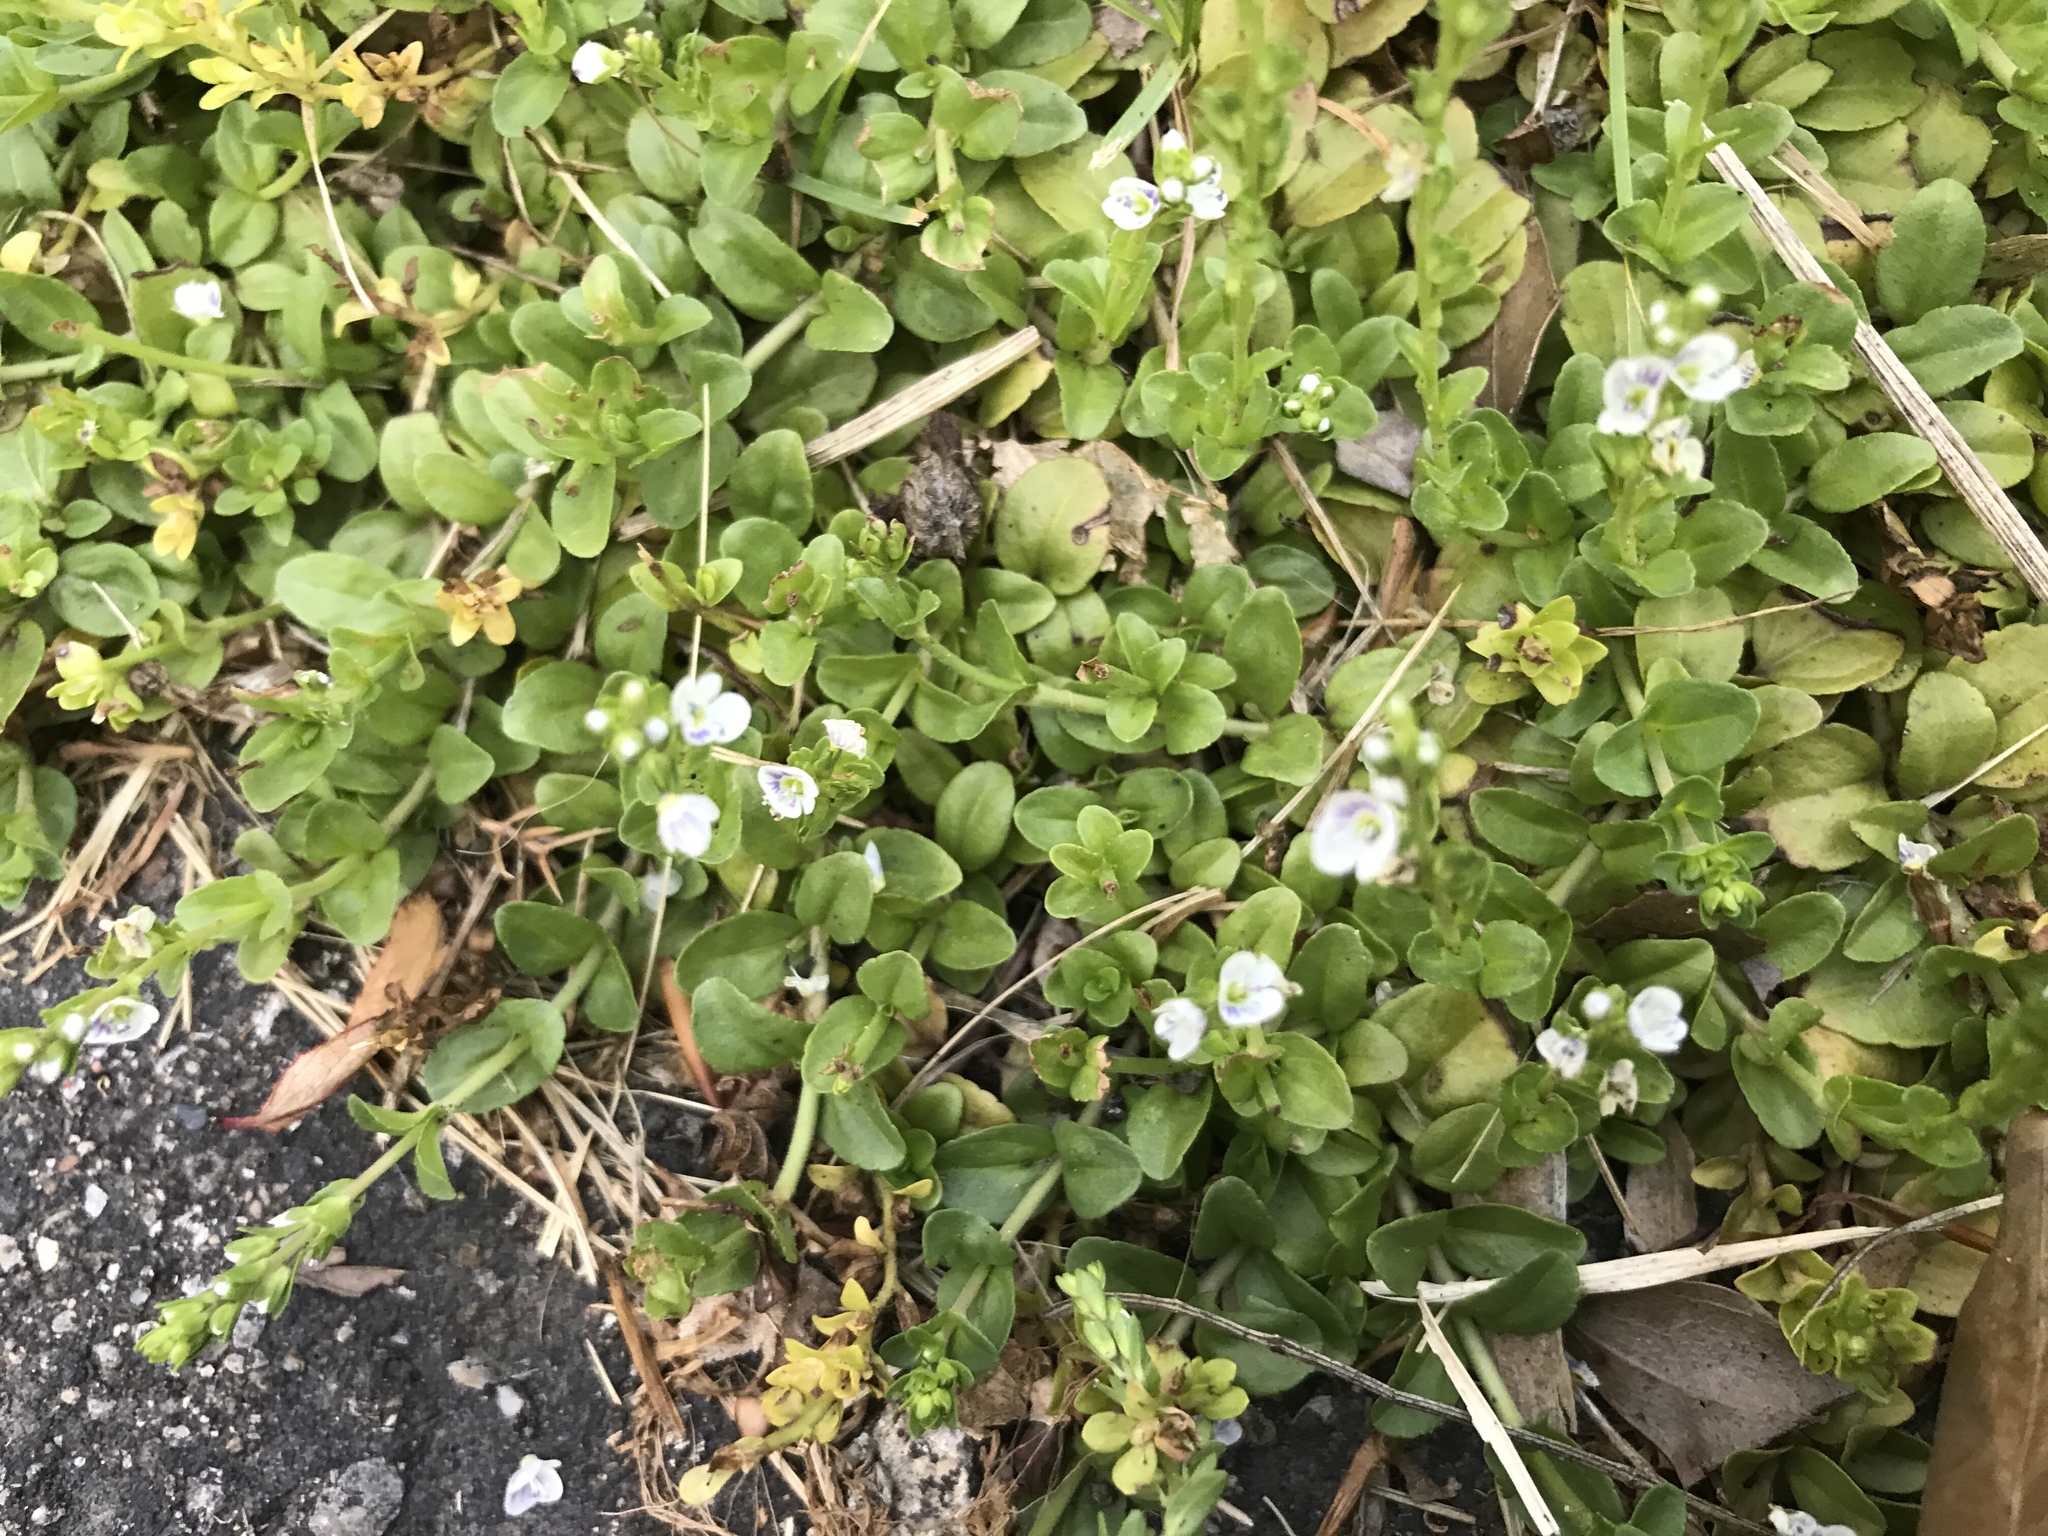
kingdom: Plantae
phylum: Tracheophyta
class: Magnoliopsida
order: Lamiales
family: Plantaginaceae
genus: Veronica
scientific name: Veronica serpyllifolia
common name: Thyme-leaved speedwell
